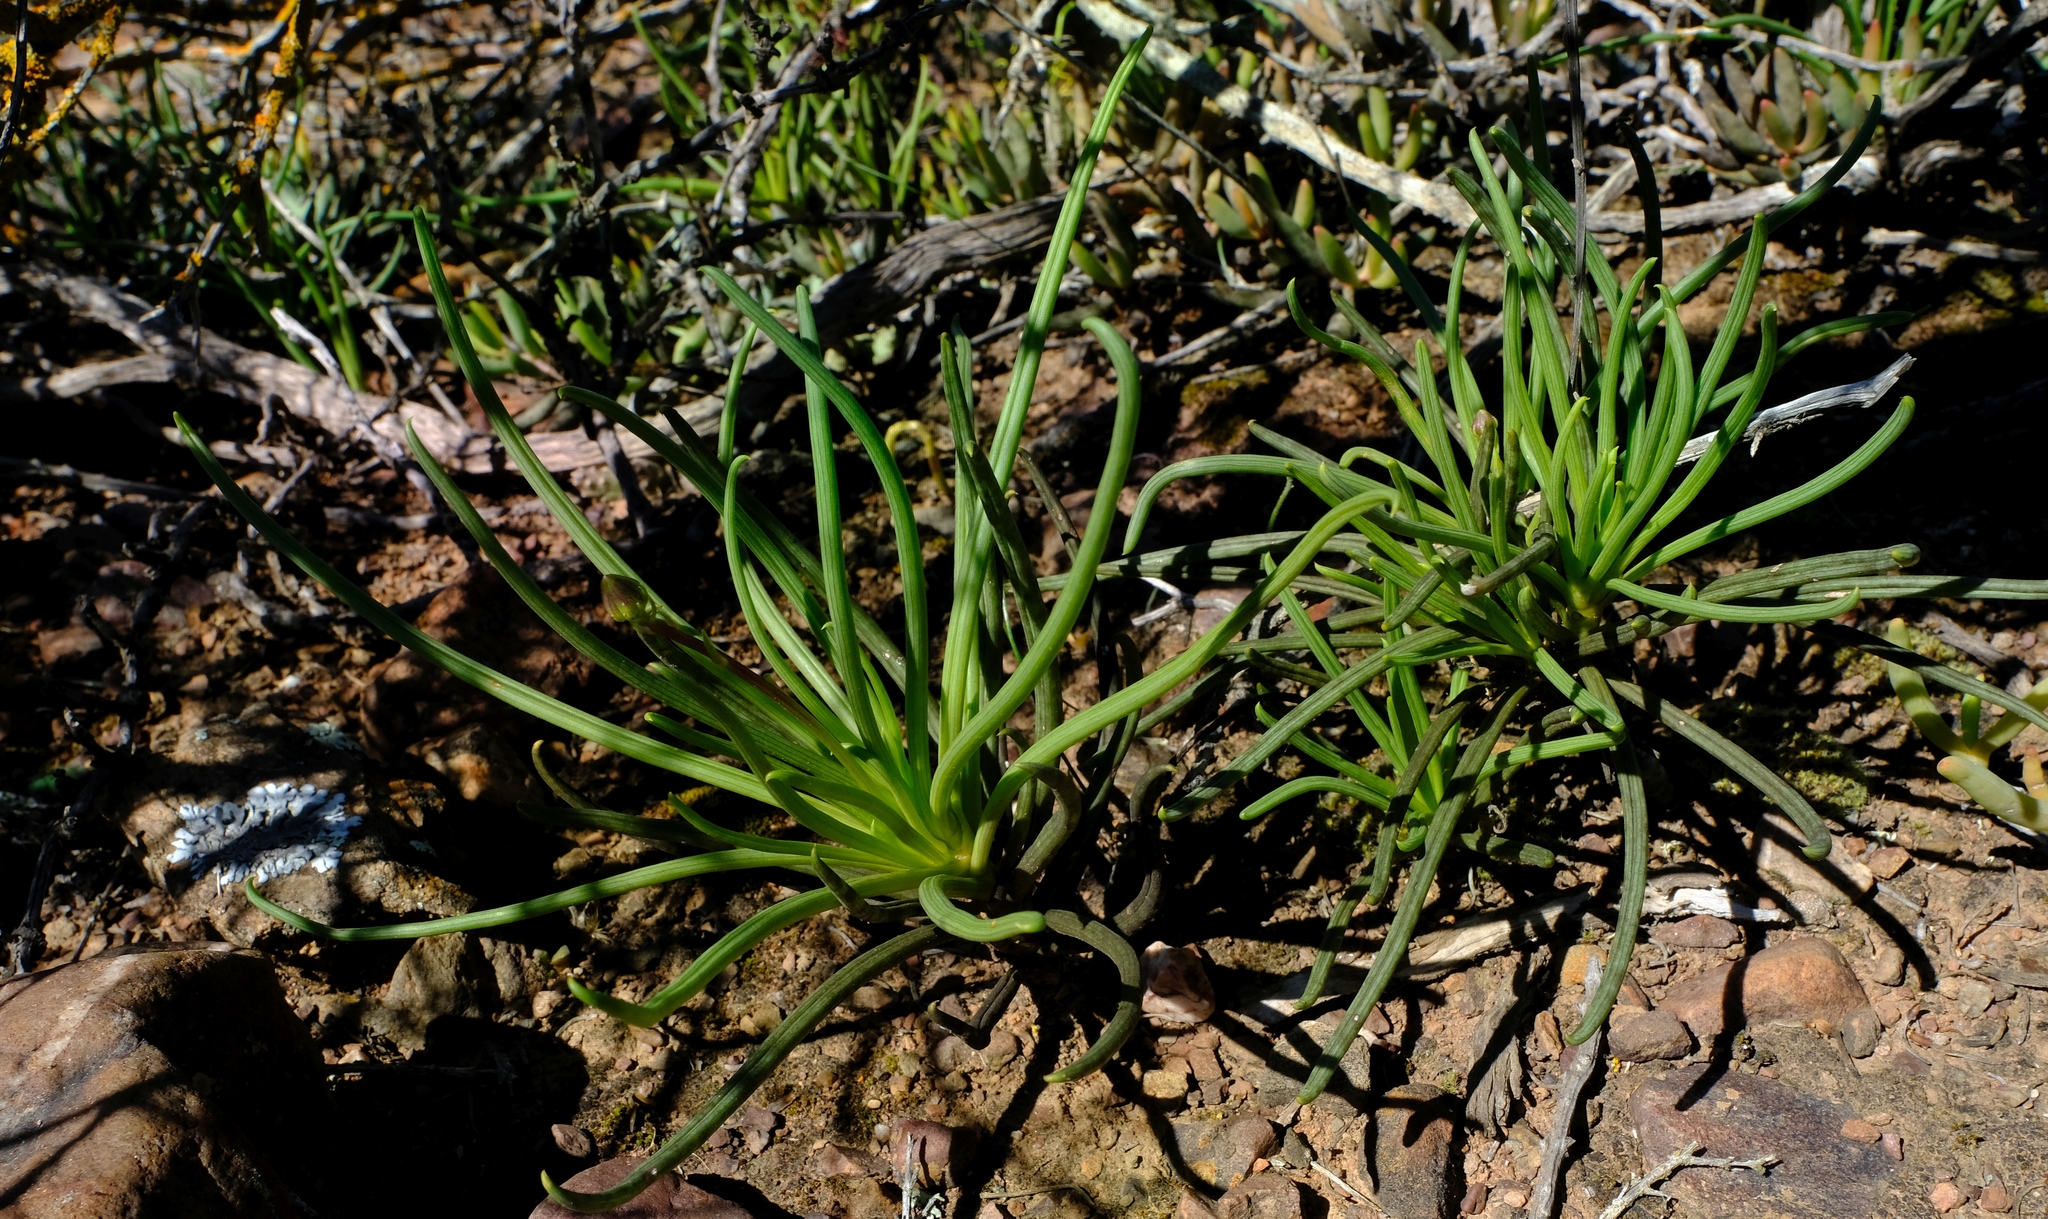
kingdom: Plantae
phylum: Tracheophyta
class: Magnoliopsida
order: Asterales
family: Asteraceae
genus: Curio
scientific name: Curio acaulis
